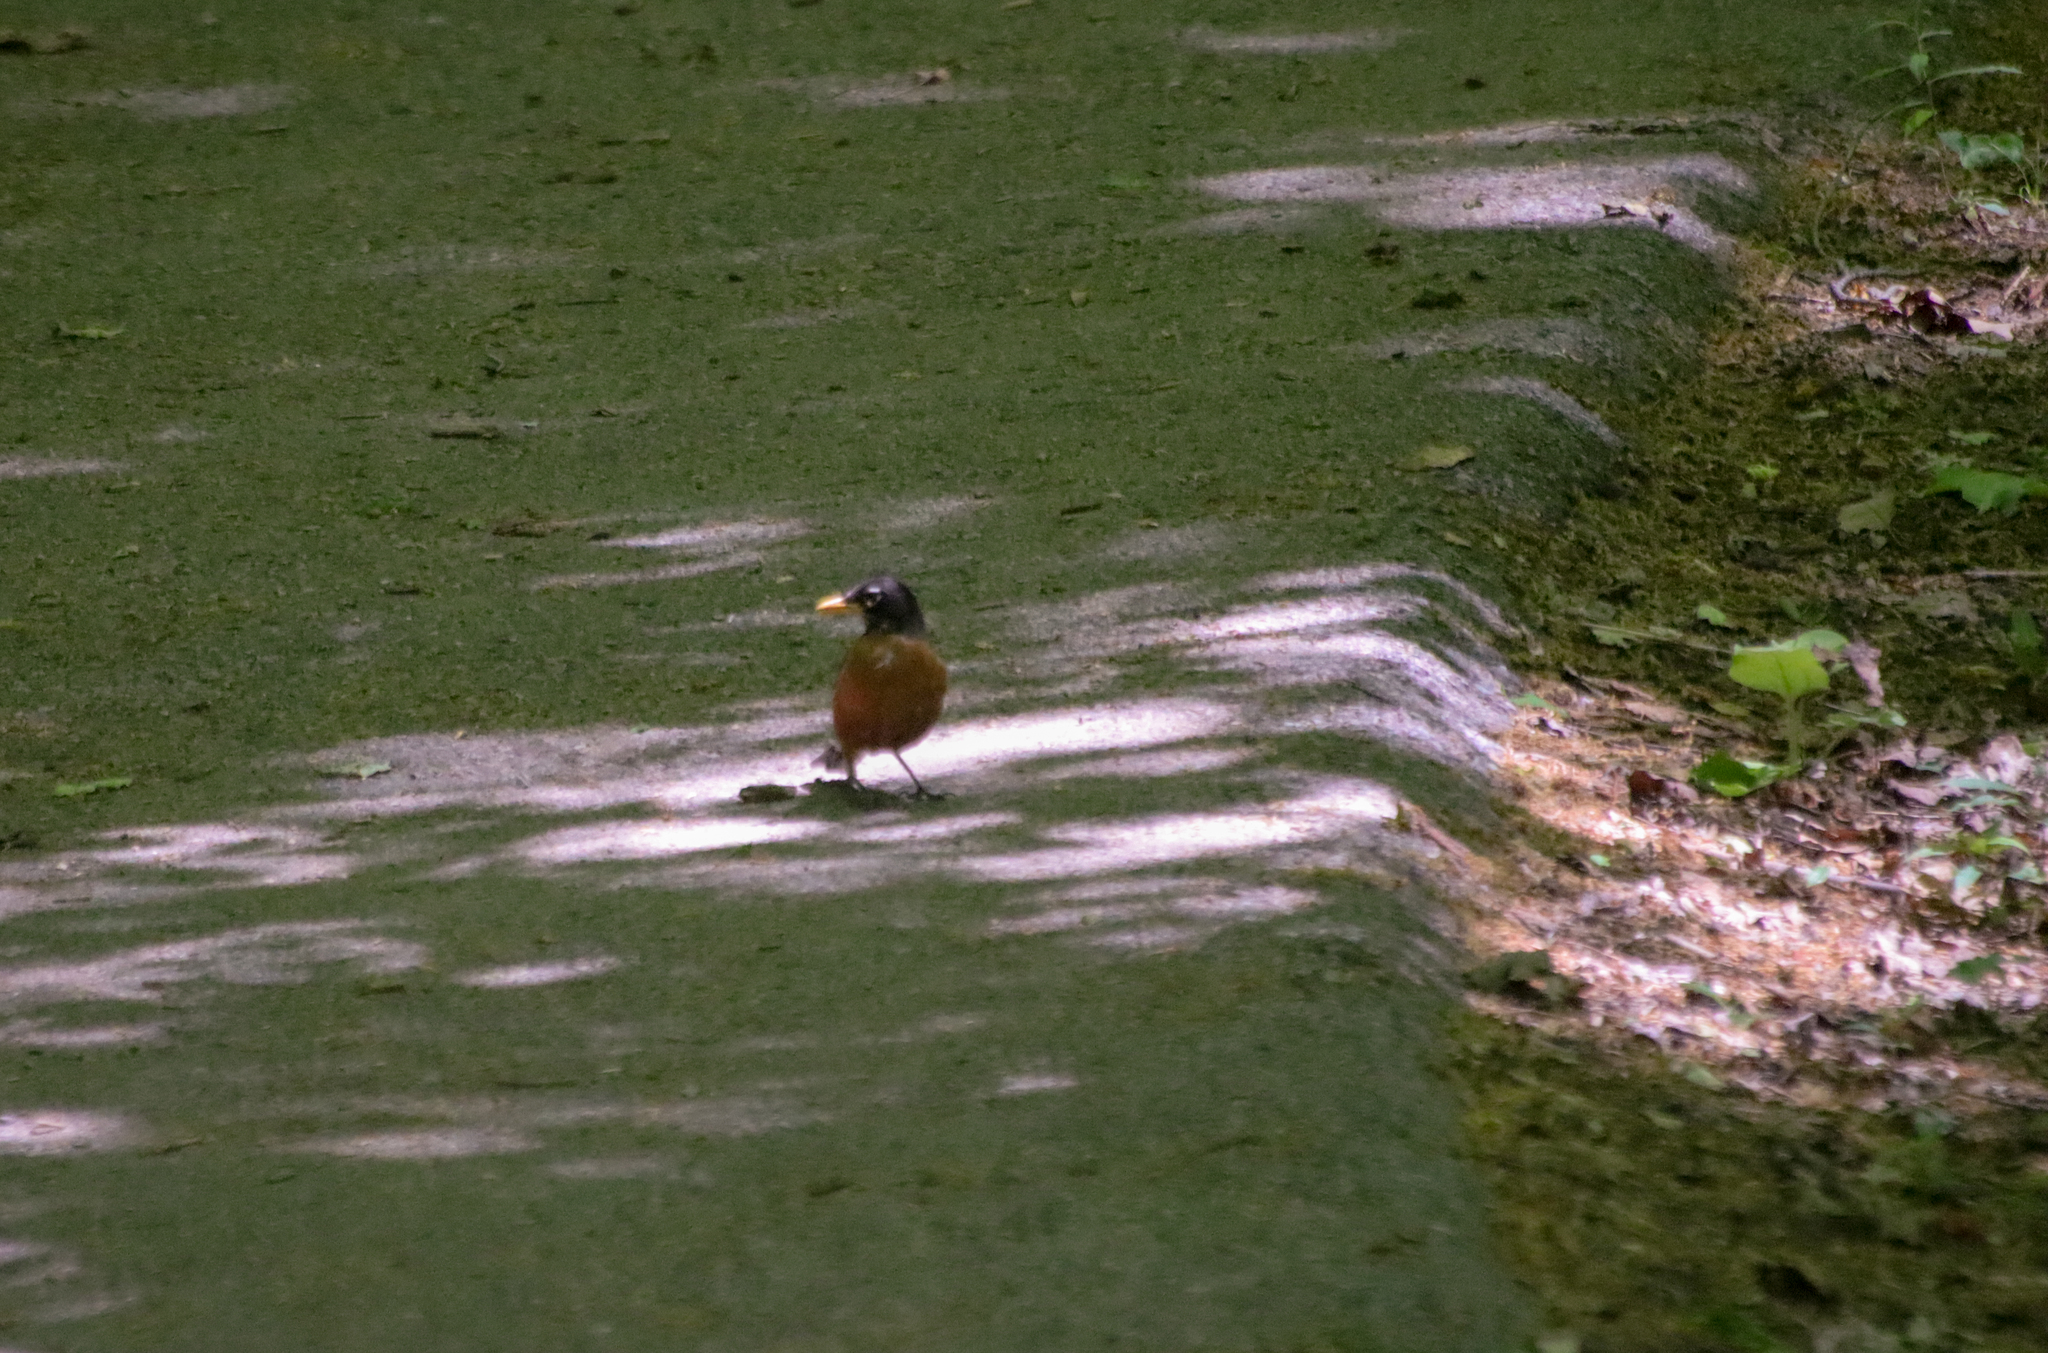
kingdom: Animalia
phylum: Chordata
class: Aves
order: Passeriformes
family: Turdidae
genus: Turdus
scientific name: Turdus migratorius
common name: American robin
